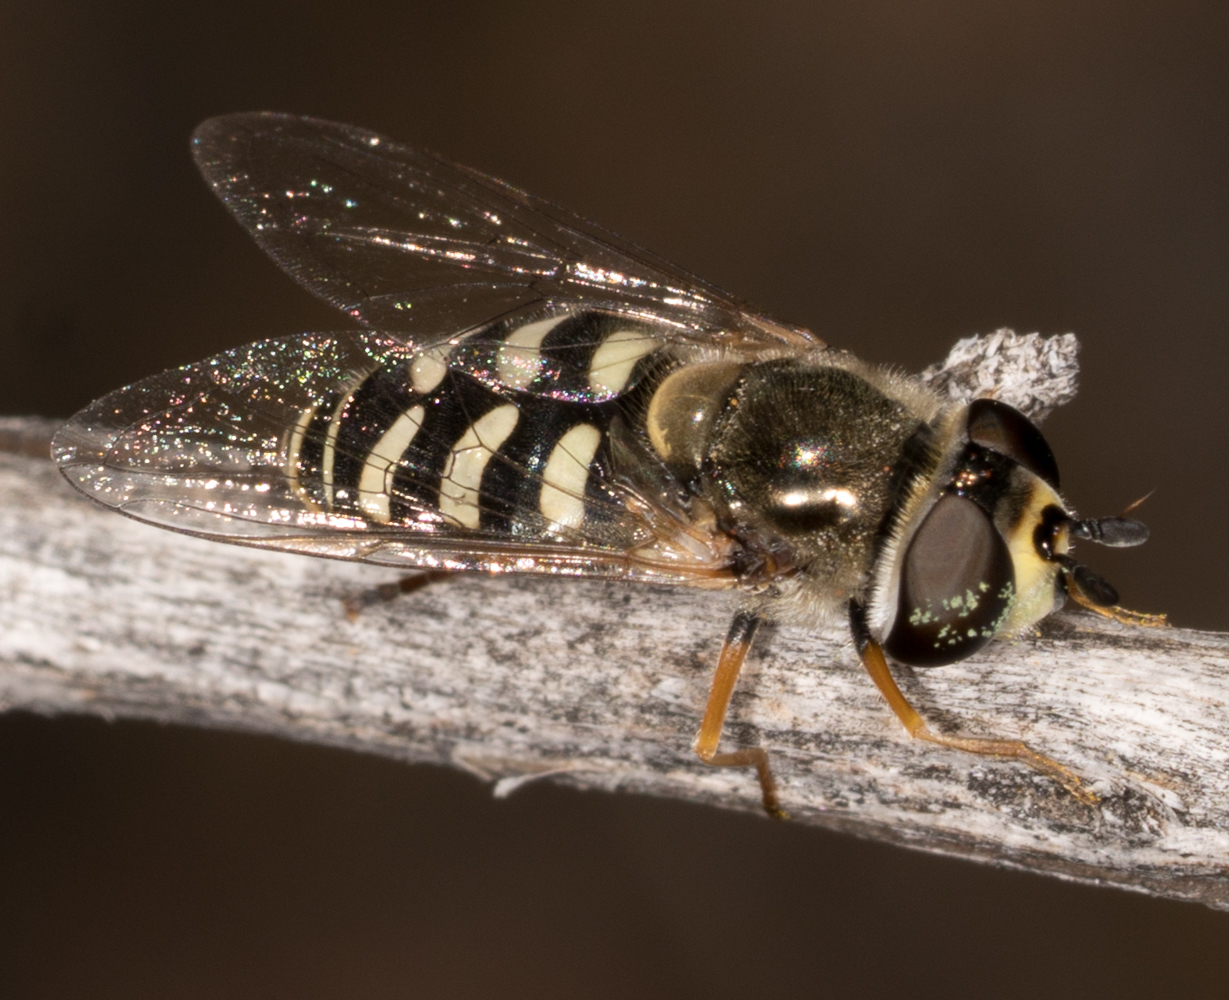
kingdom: Animalia
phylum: Arthropoda
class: Insecta
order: Diptera
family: Syrphidae
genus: Eupeodes
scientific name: Eupeodes volucris
